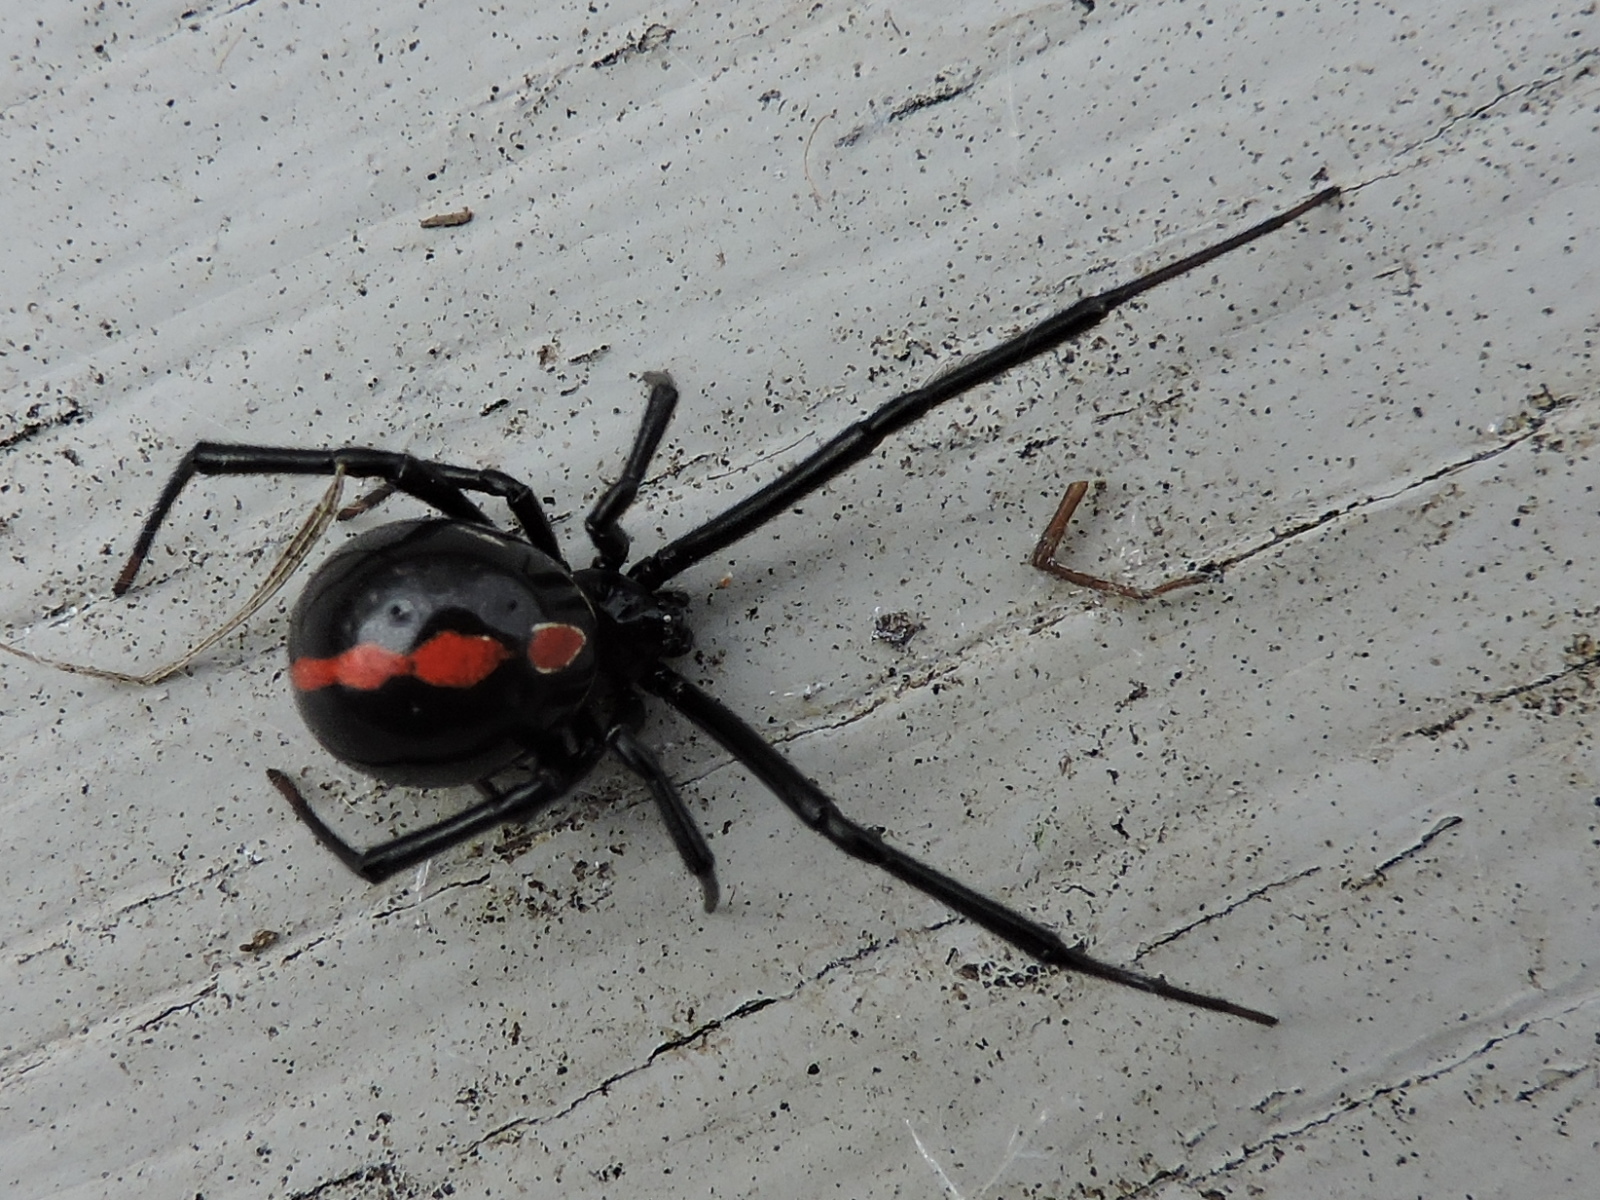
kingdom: Animalia
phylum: Arthropoda
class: Arachnida
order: Araneae
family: Theridiidae
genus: Latrodectus
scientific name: Latrodectus mactans
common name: Cobweb spiders
